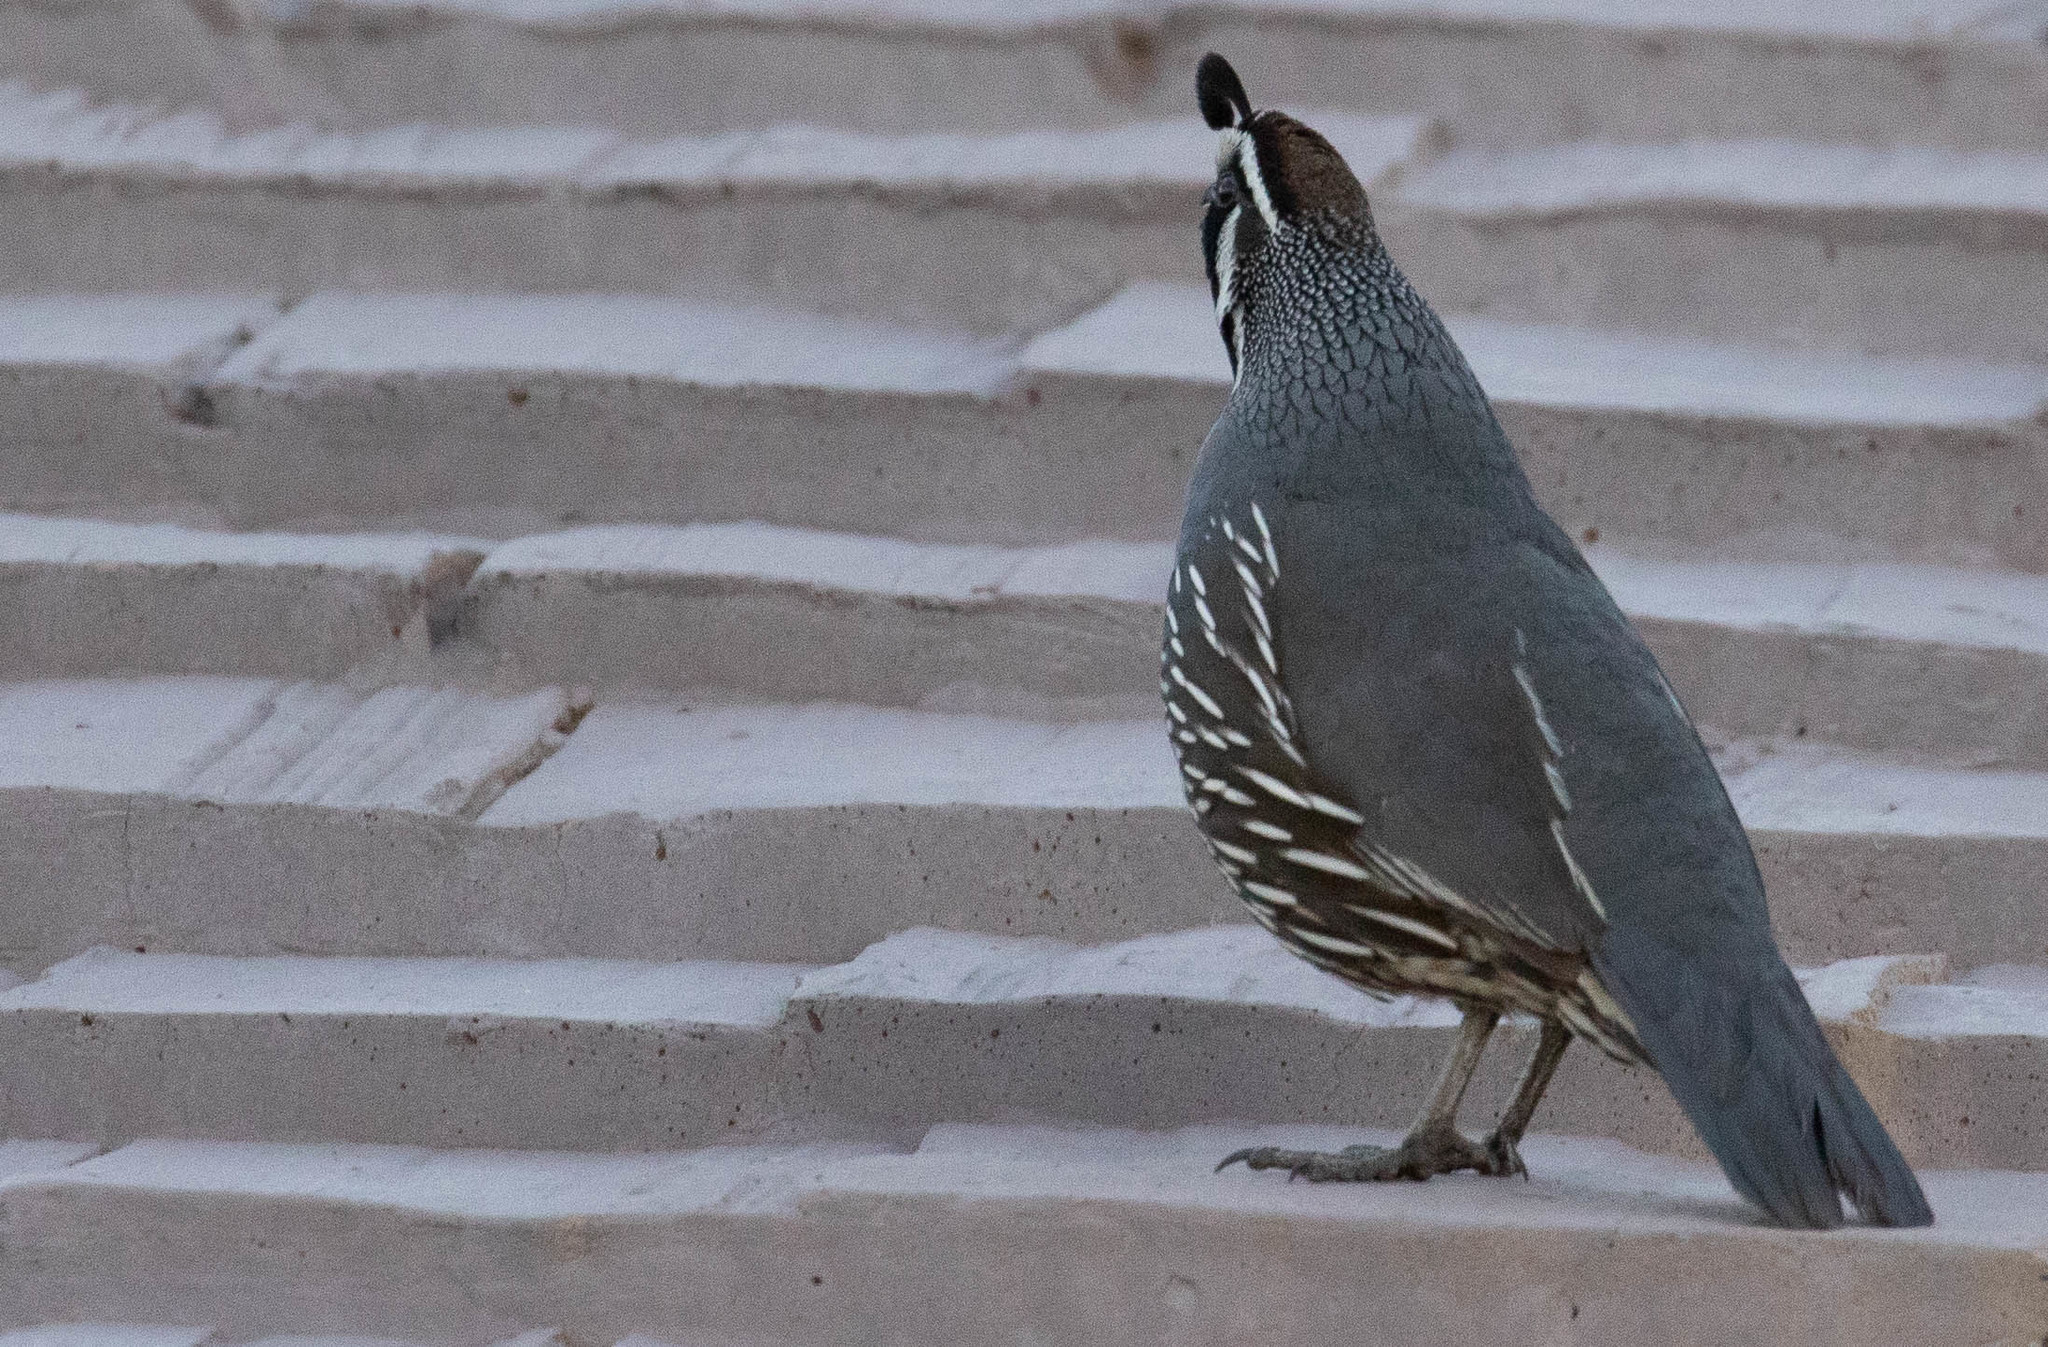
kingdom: Animalia
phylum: Chordata
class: Aves
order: Galliformes
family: Odontophoridae
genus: Callipepla
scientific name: Callipepla californica
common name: California quail
